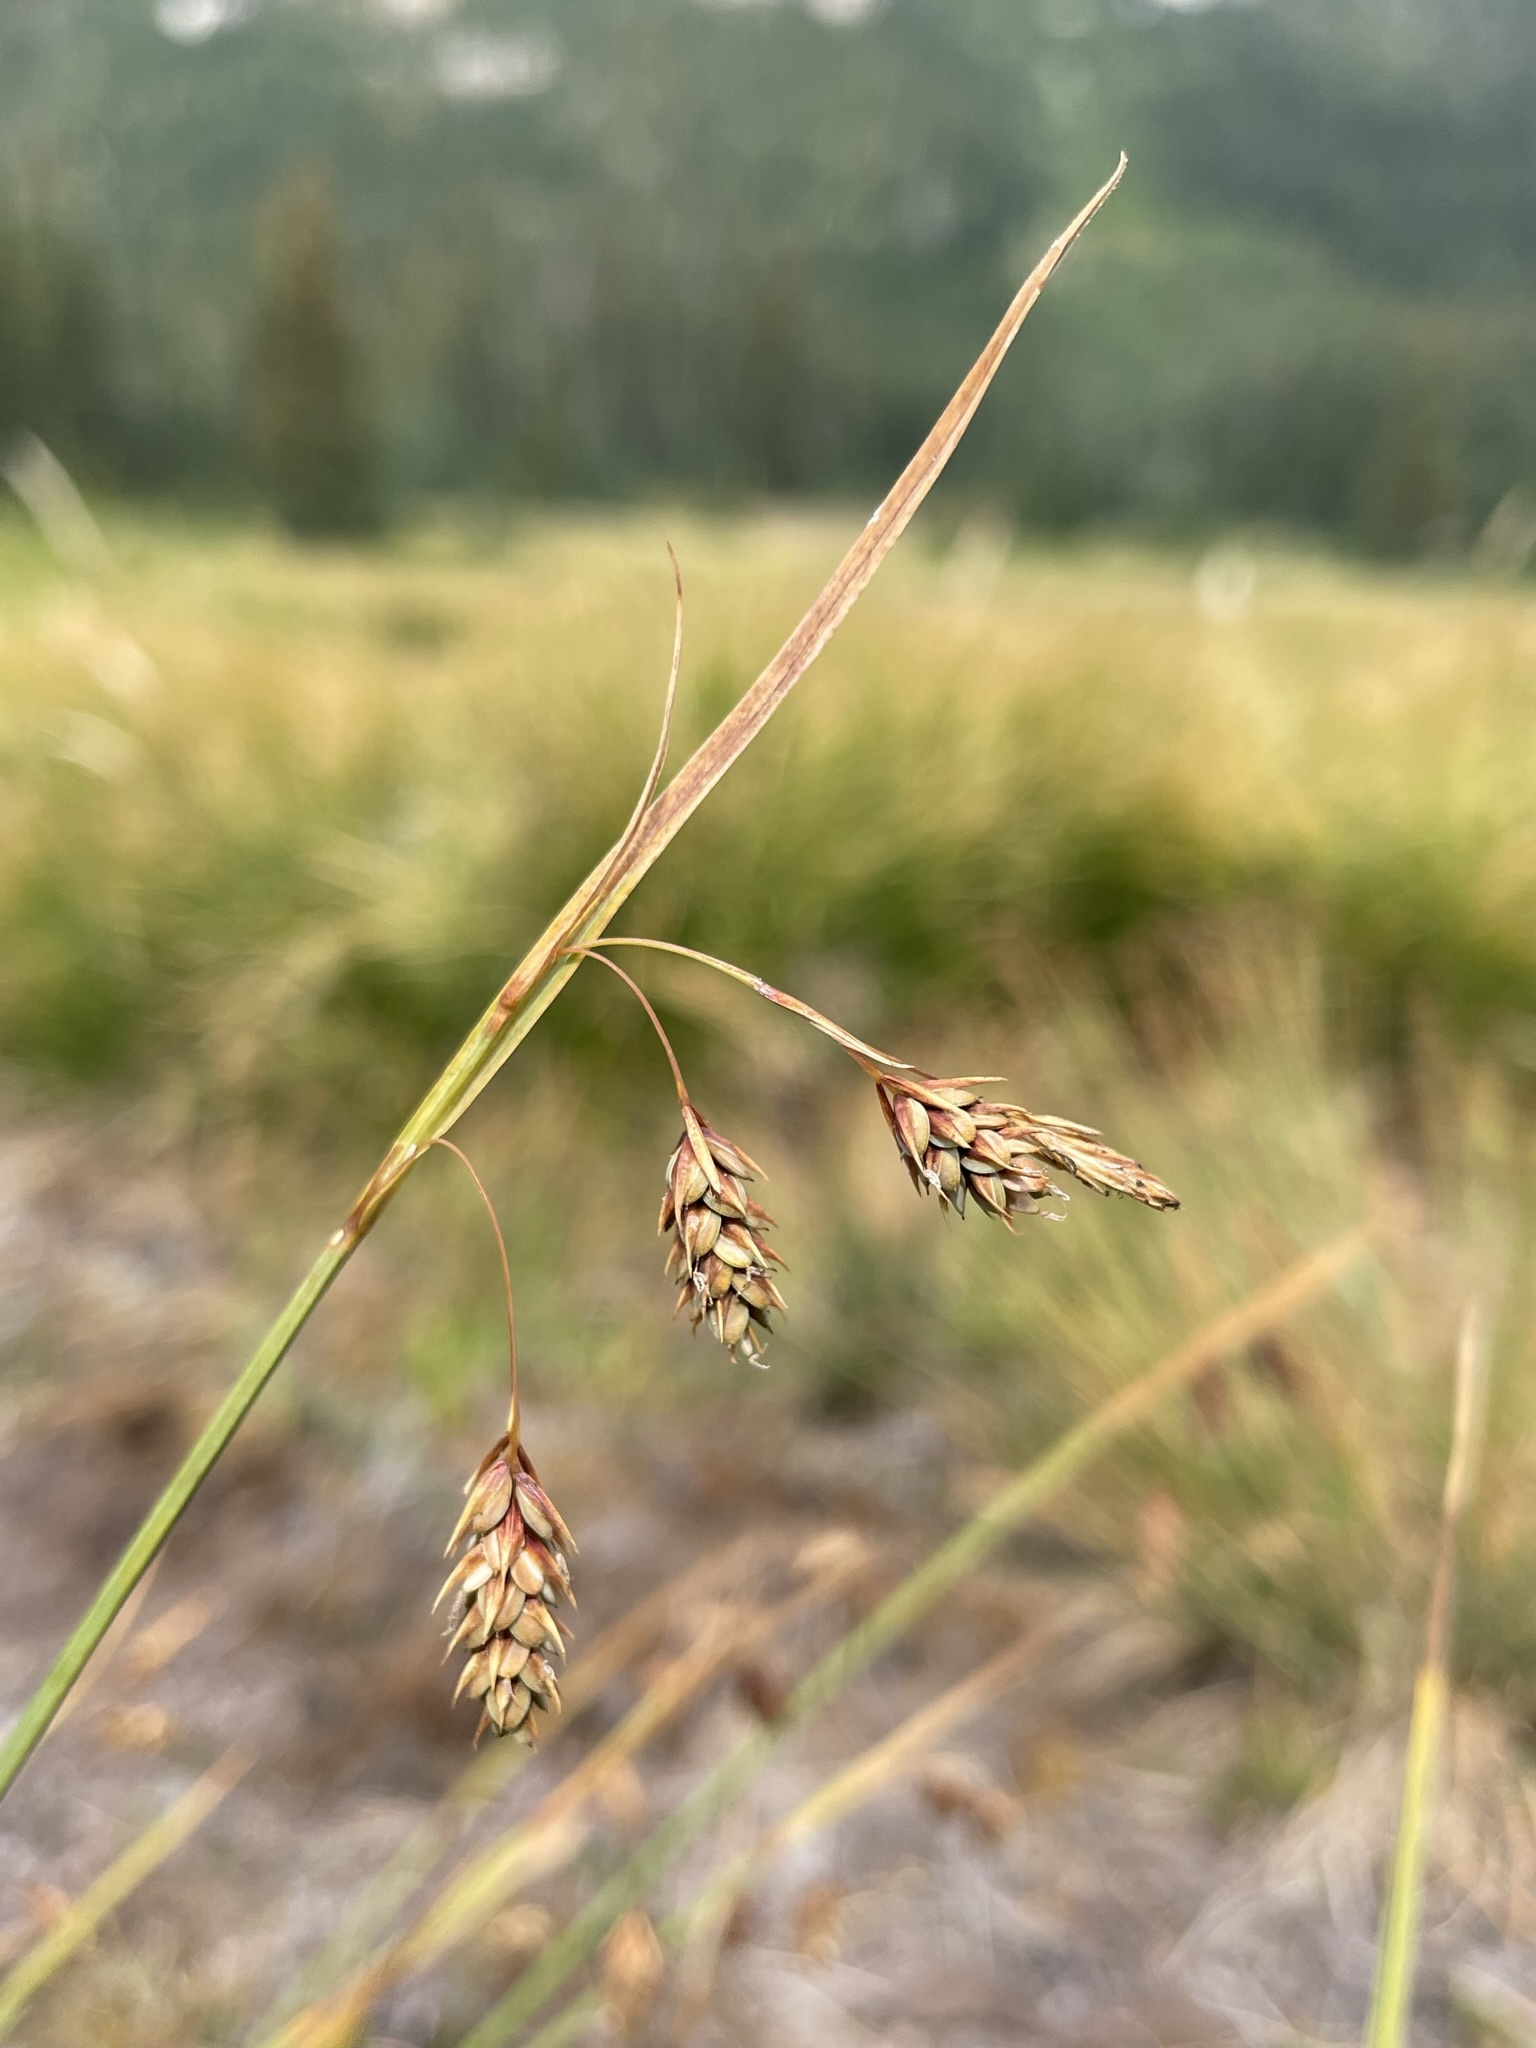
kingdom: Plantae
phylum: Tracheophyta
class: Liliopsida
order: Poales
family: Cyperaceae
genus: Carex
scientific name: Carex magellanica
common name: Bog sedge
